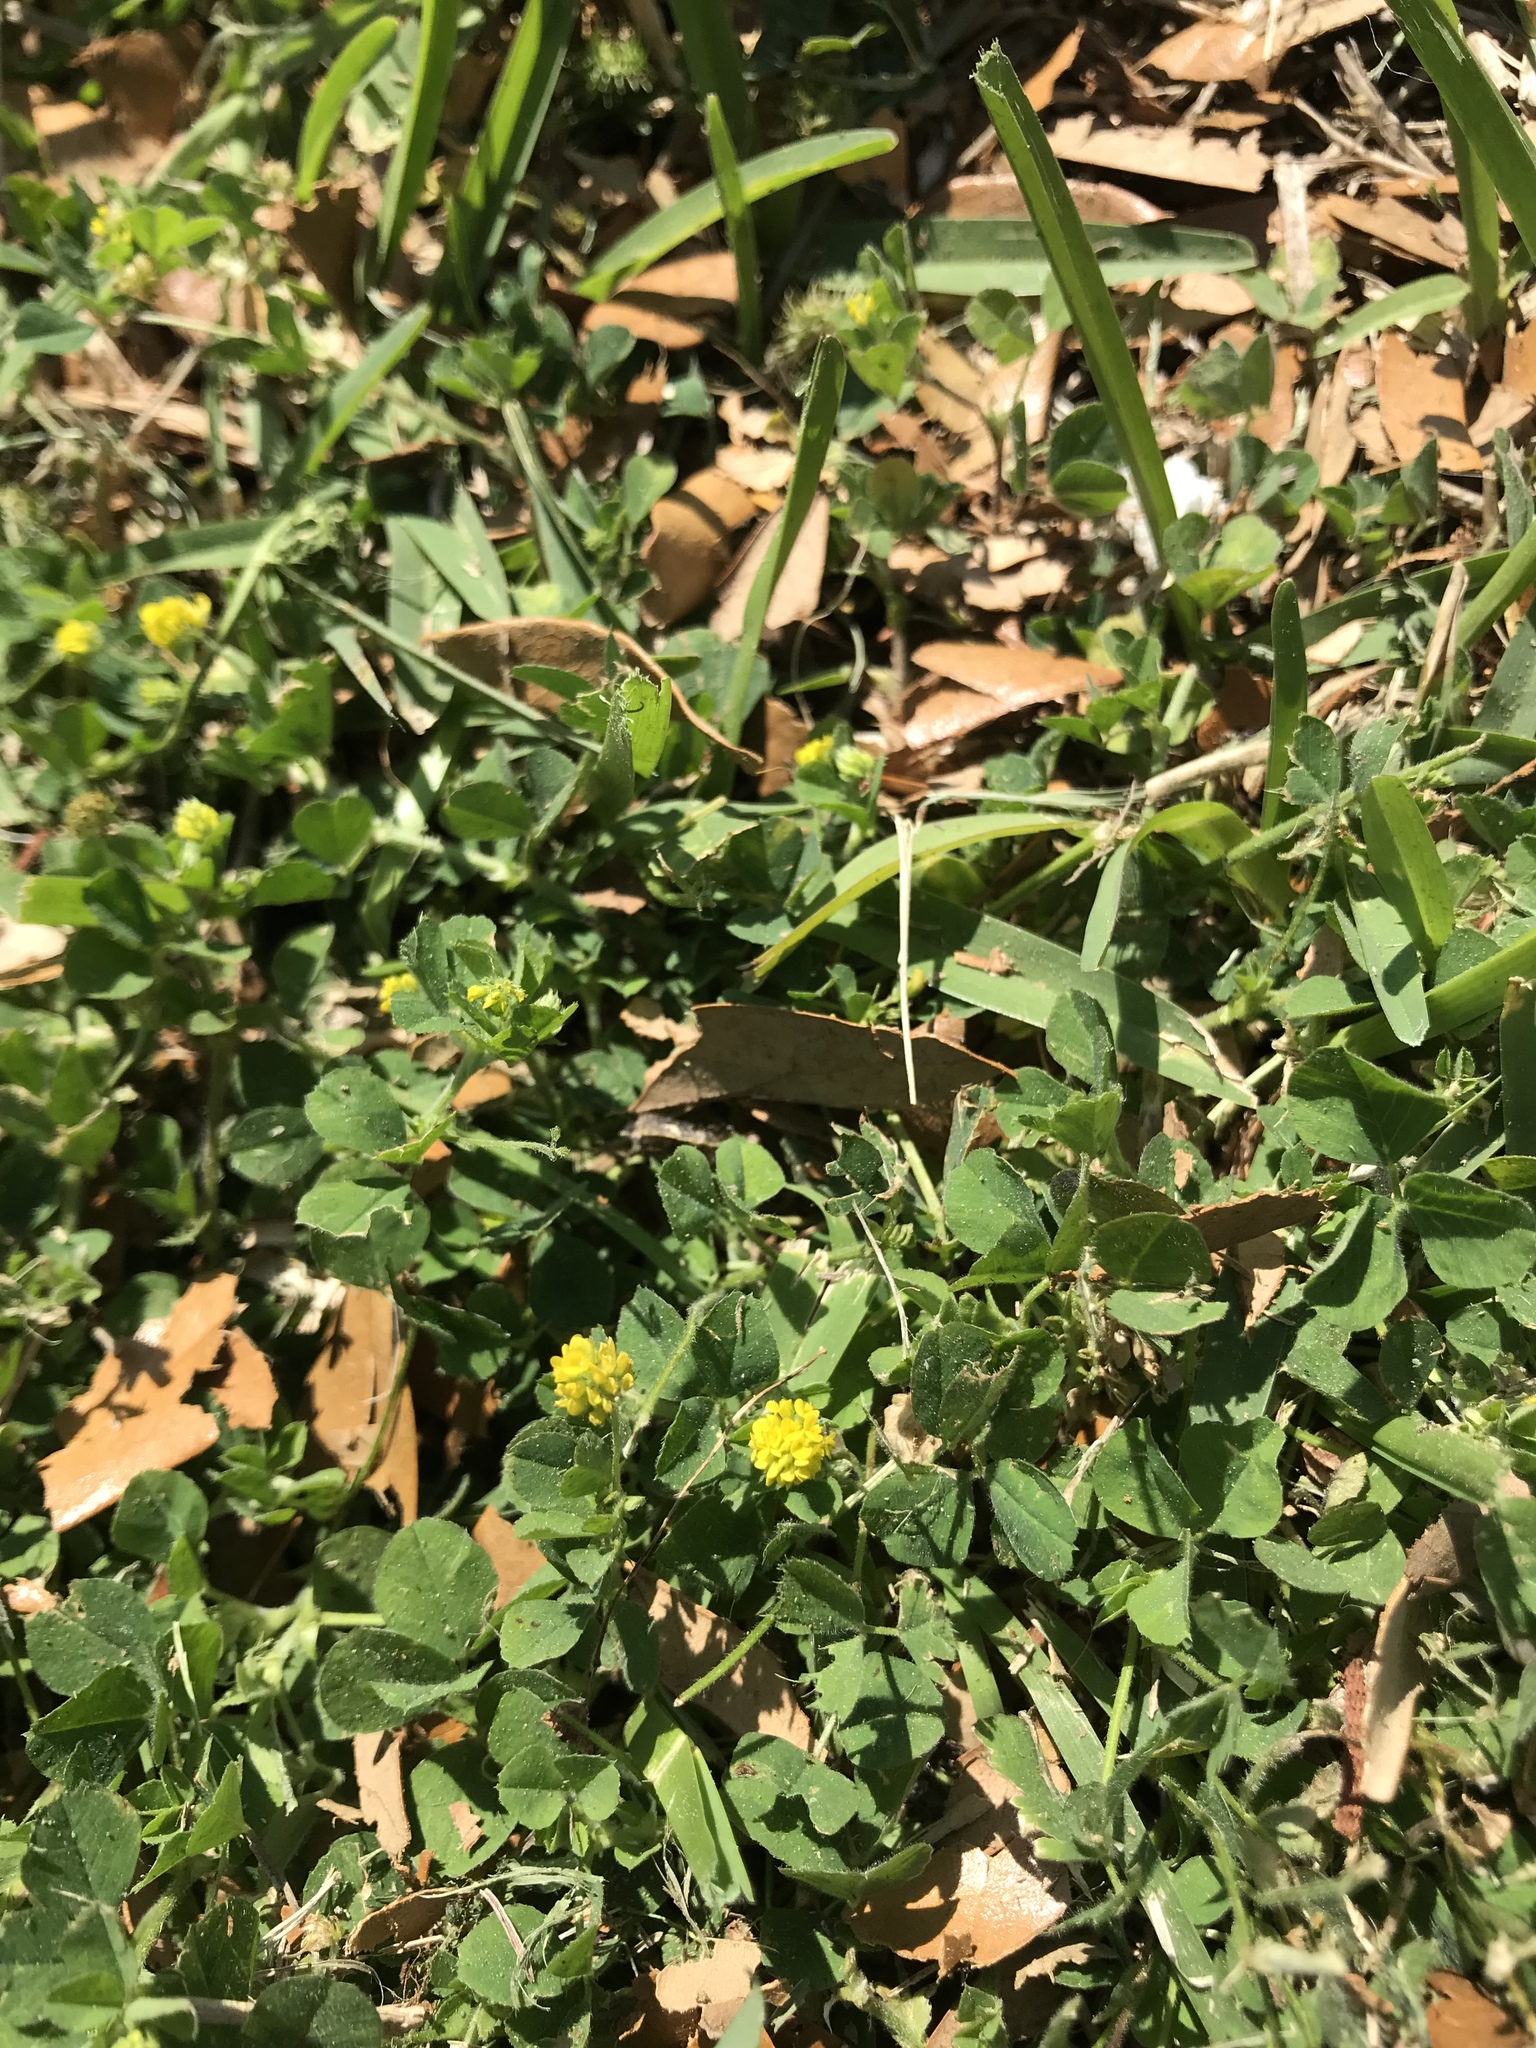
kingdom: Plantae
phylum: Tracheophyta
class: Magnoliopsida
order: Fabales
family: Fabaceae
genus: Medicago
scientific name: Medicago lupulina
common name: Black medick
